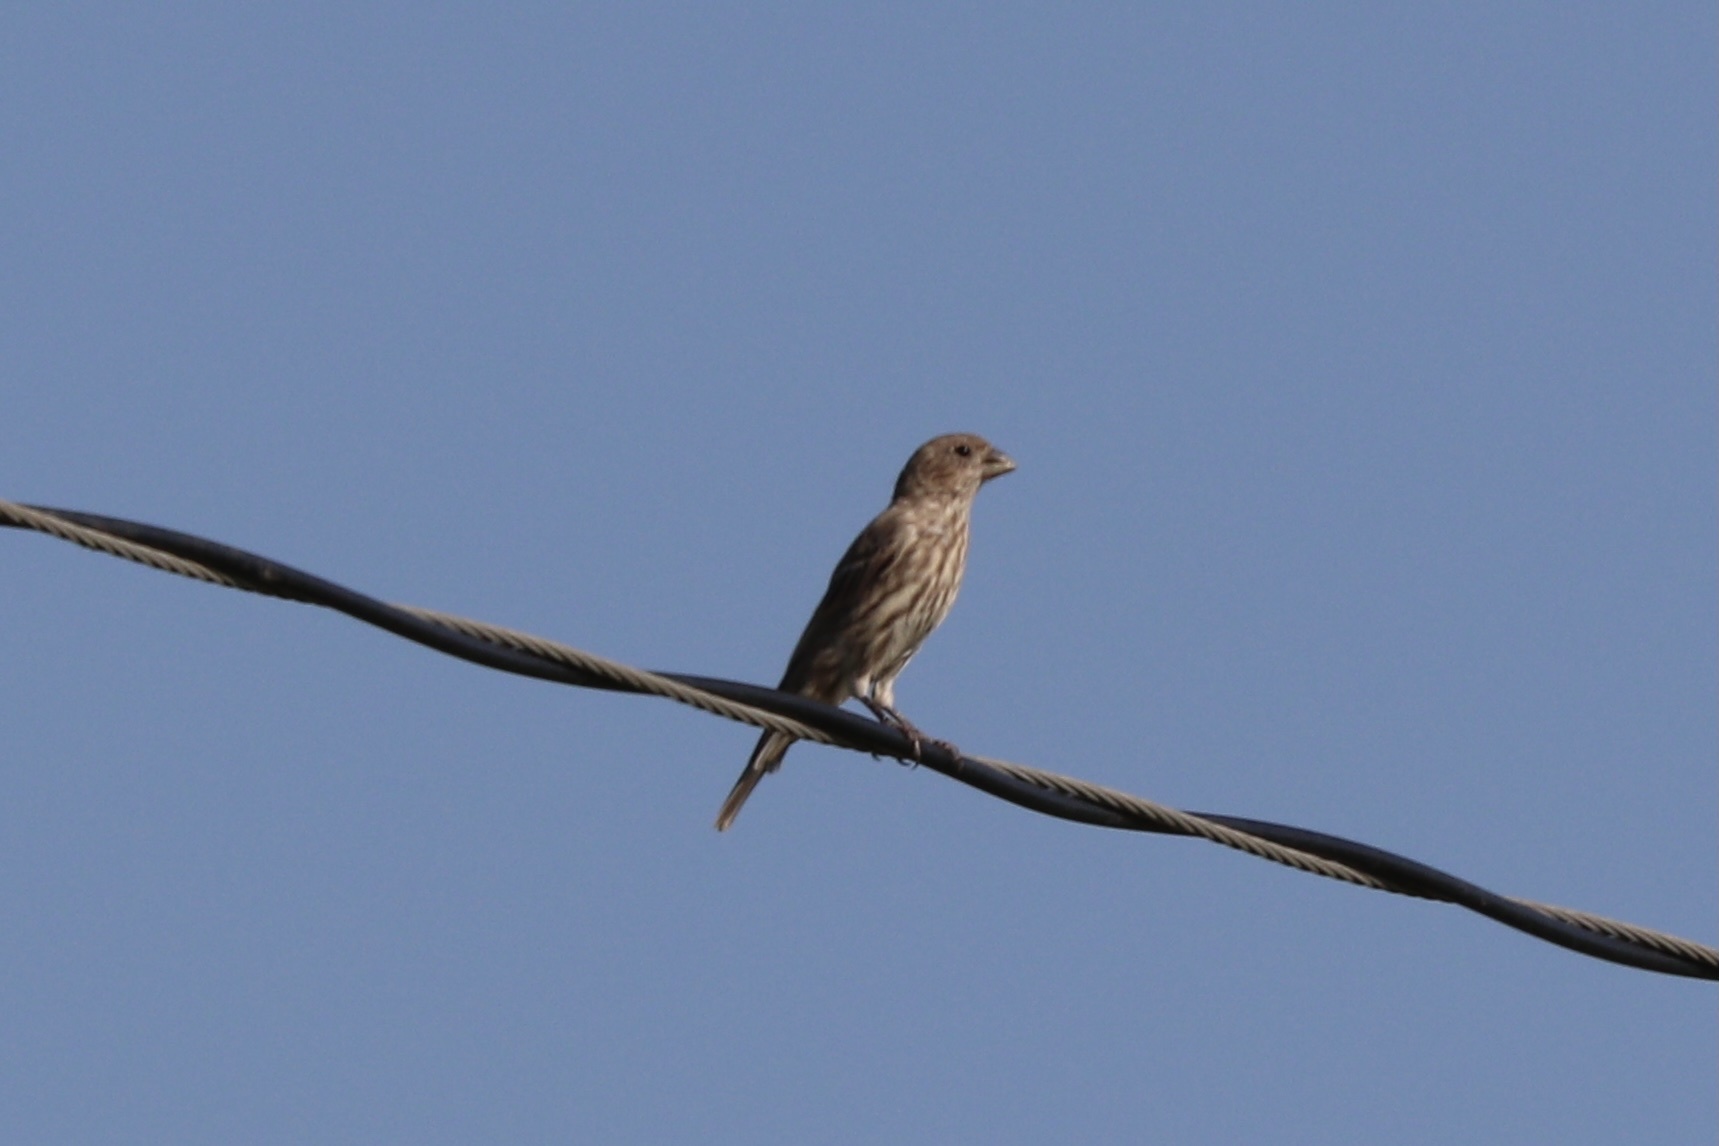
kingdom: Animalia
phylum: Chordata
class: Aves
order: Passeriformes
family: Fringillidae
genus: Haemorhous
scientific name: Haemorhous mexicanus
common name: House finch
